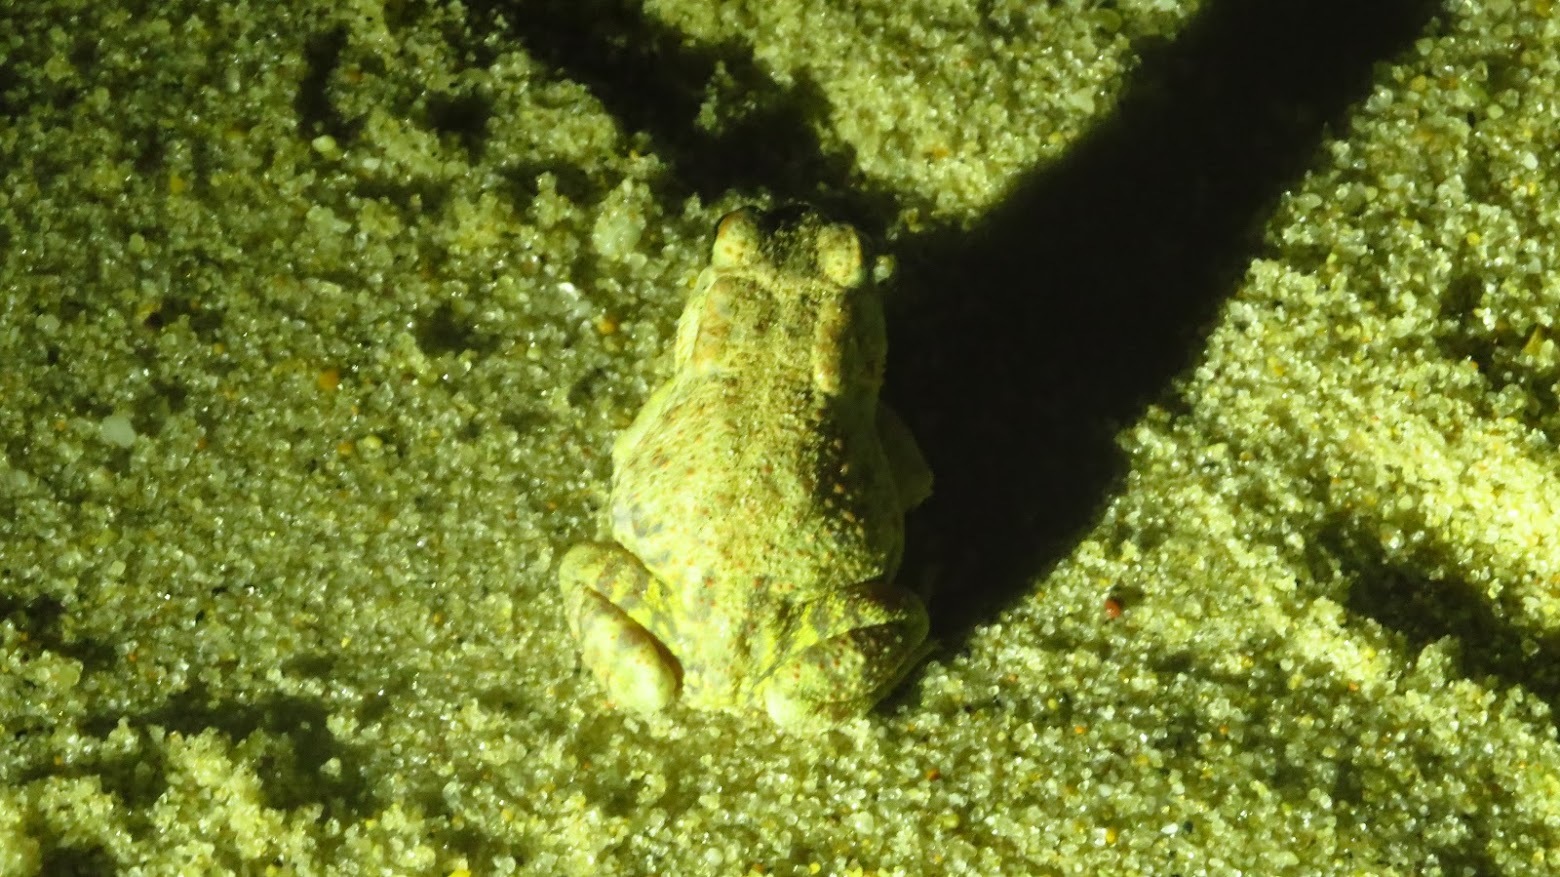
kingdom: Animalia
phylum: Chordata
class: Amphibia
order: Anura
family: Bufonidae
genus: Anaxyrus
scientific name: Anaxyrus fowleri
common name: Fowler's toad
